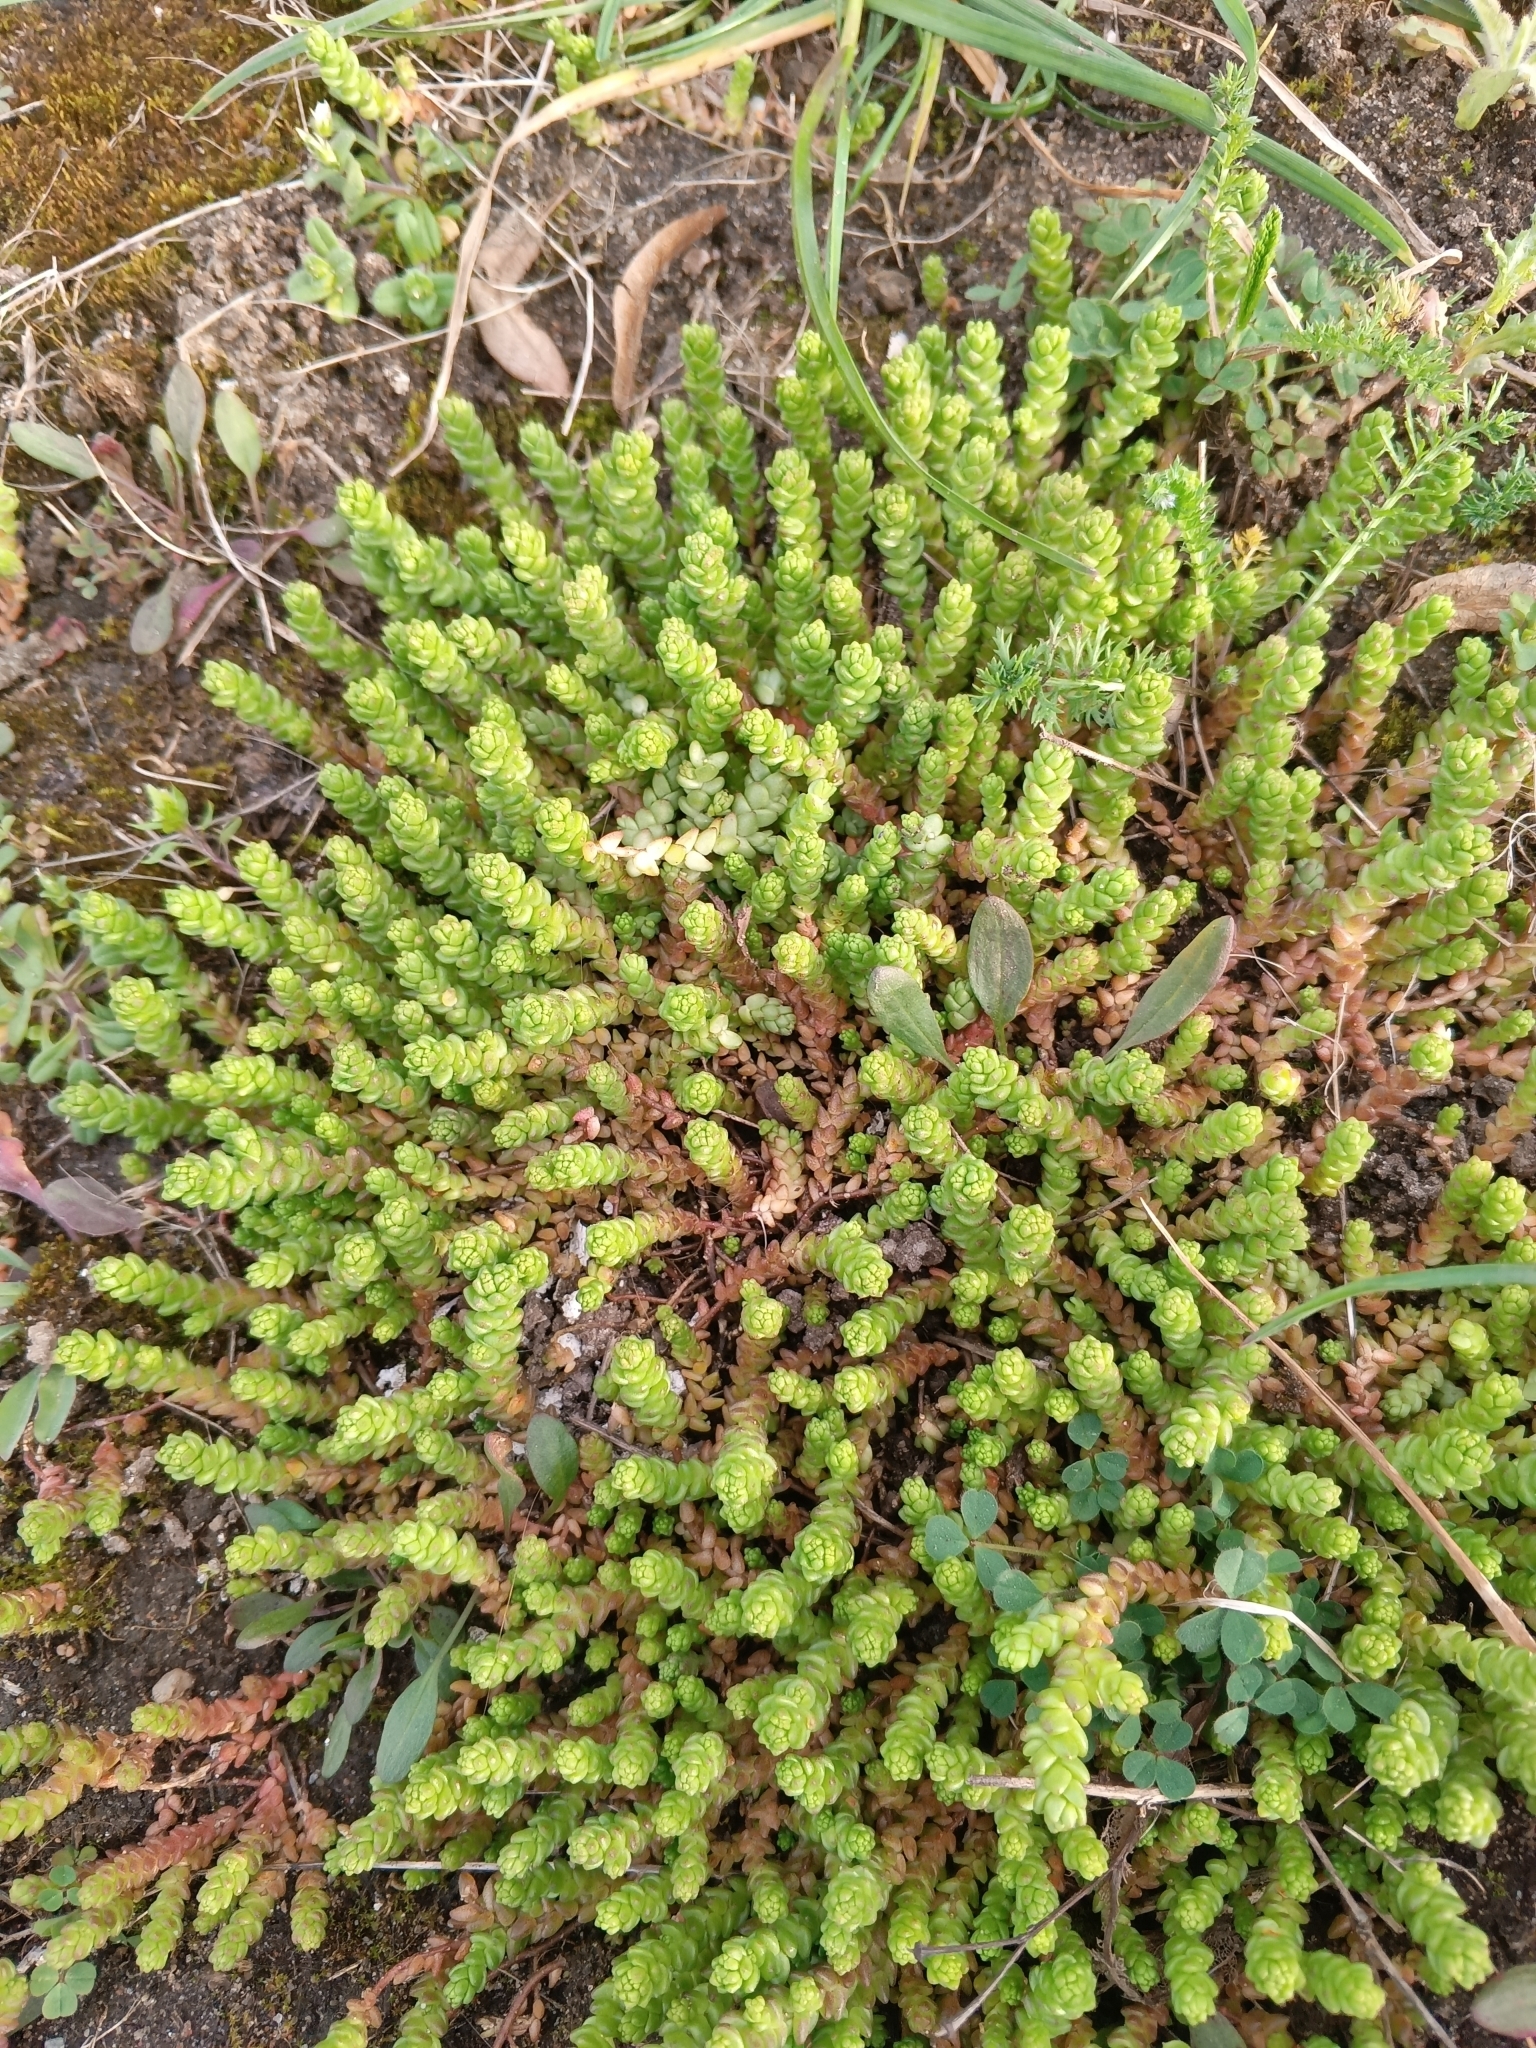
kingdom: Plantae
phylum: Tracheophyta
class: Magnoliopsida
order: Saxifragales
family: Crassulaceae
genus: Sedum
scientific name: Sedum acre
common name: Biting stonecrop
